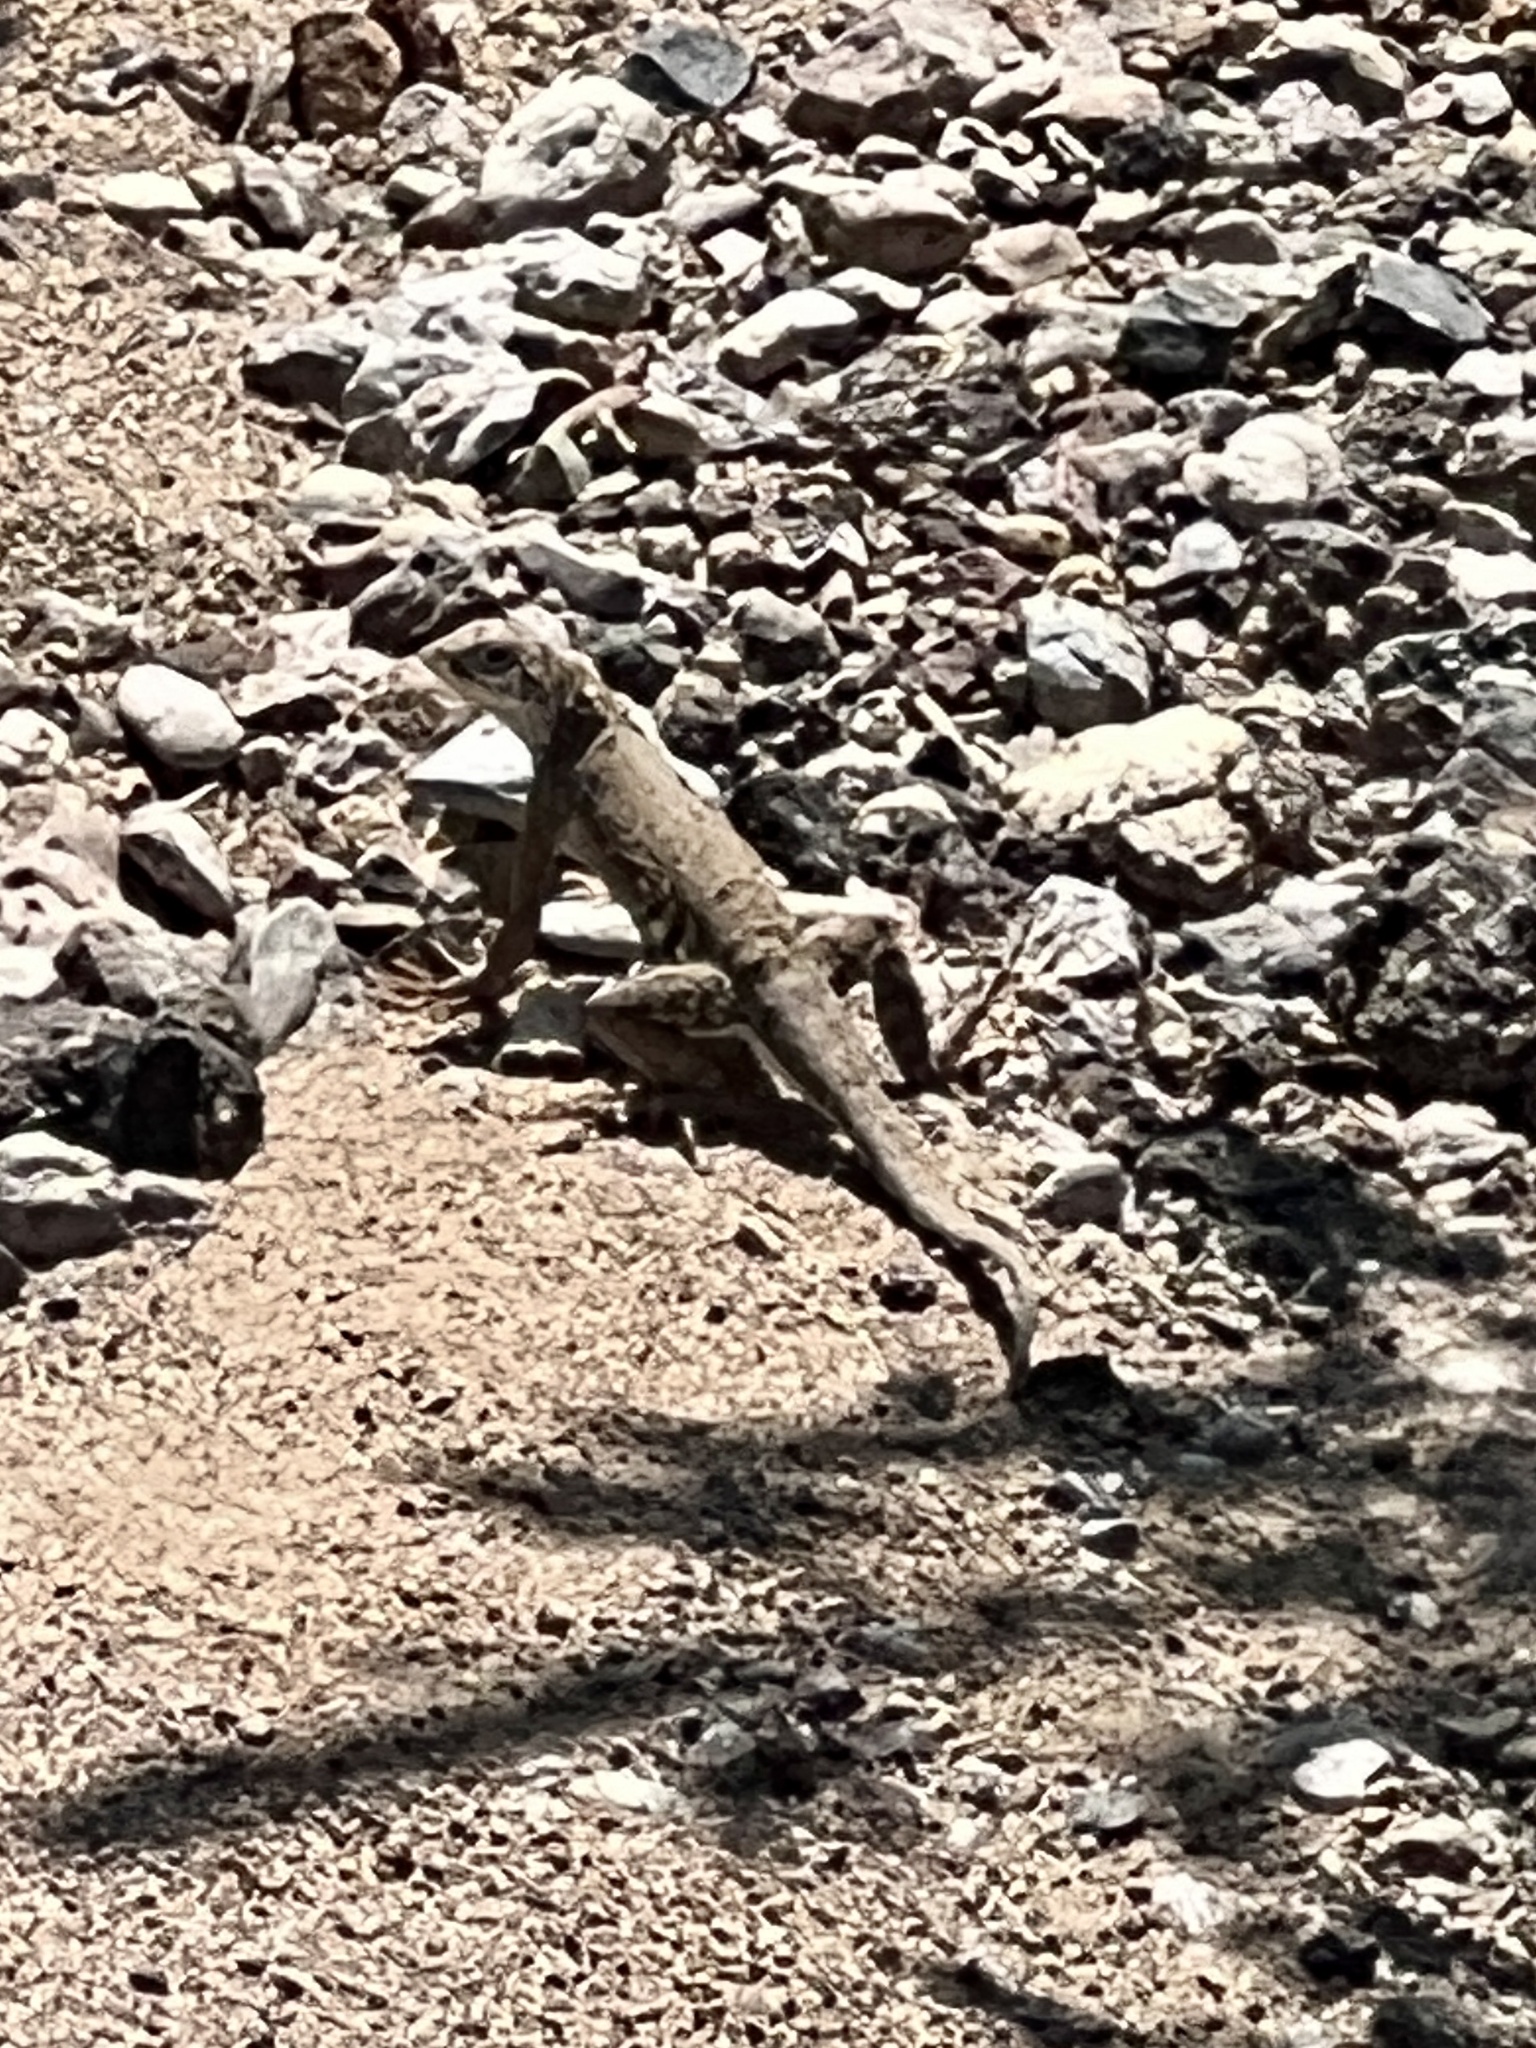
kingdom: Animalia
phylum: Chordata
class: Squamata
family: Phrynosomatidae
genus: Cophosaurus
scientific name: Cophosaurus texanus
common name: Greater earless lizard
